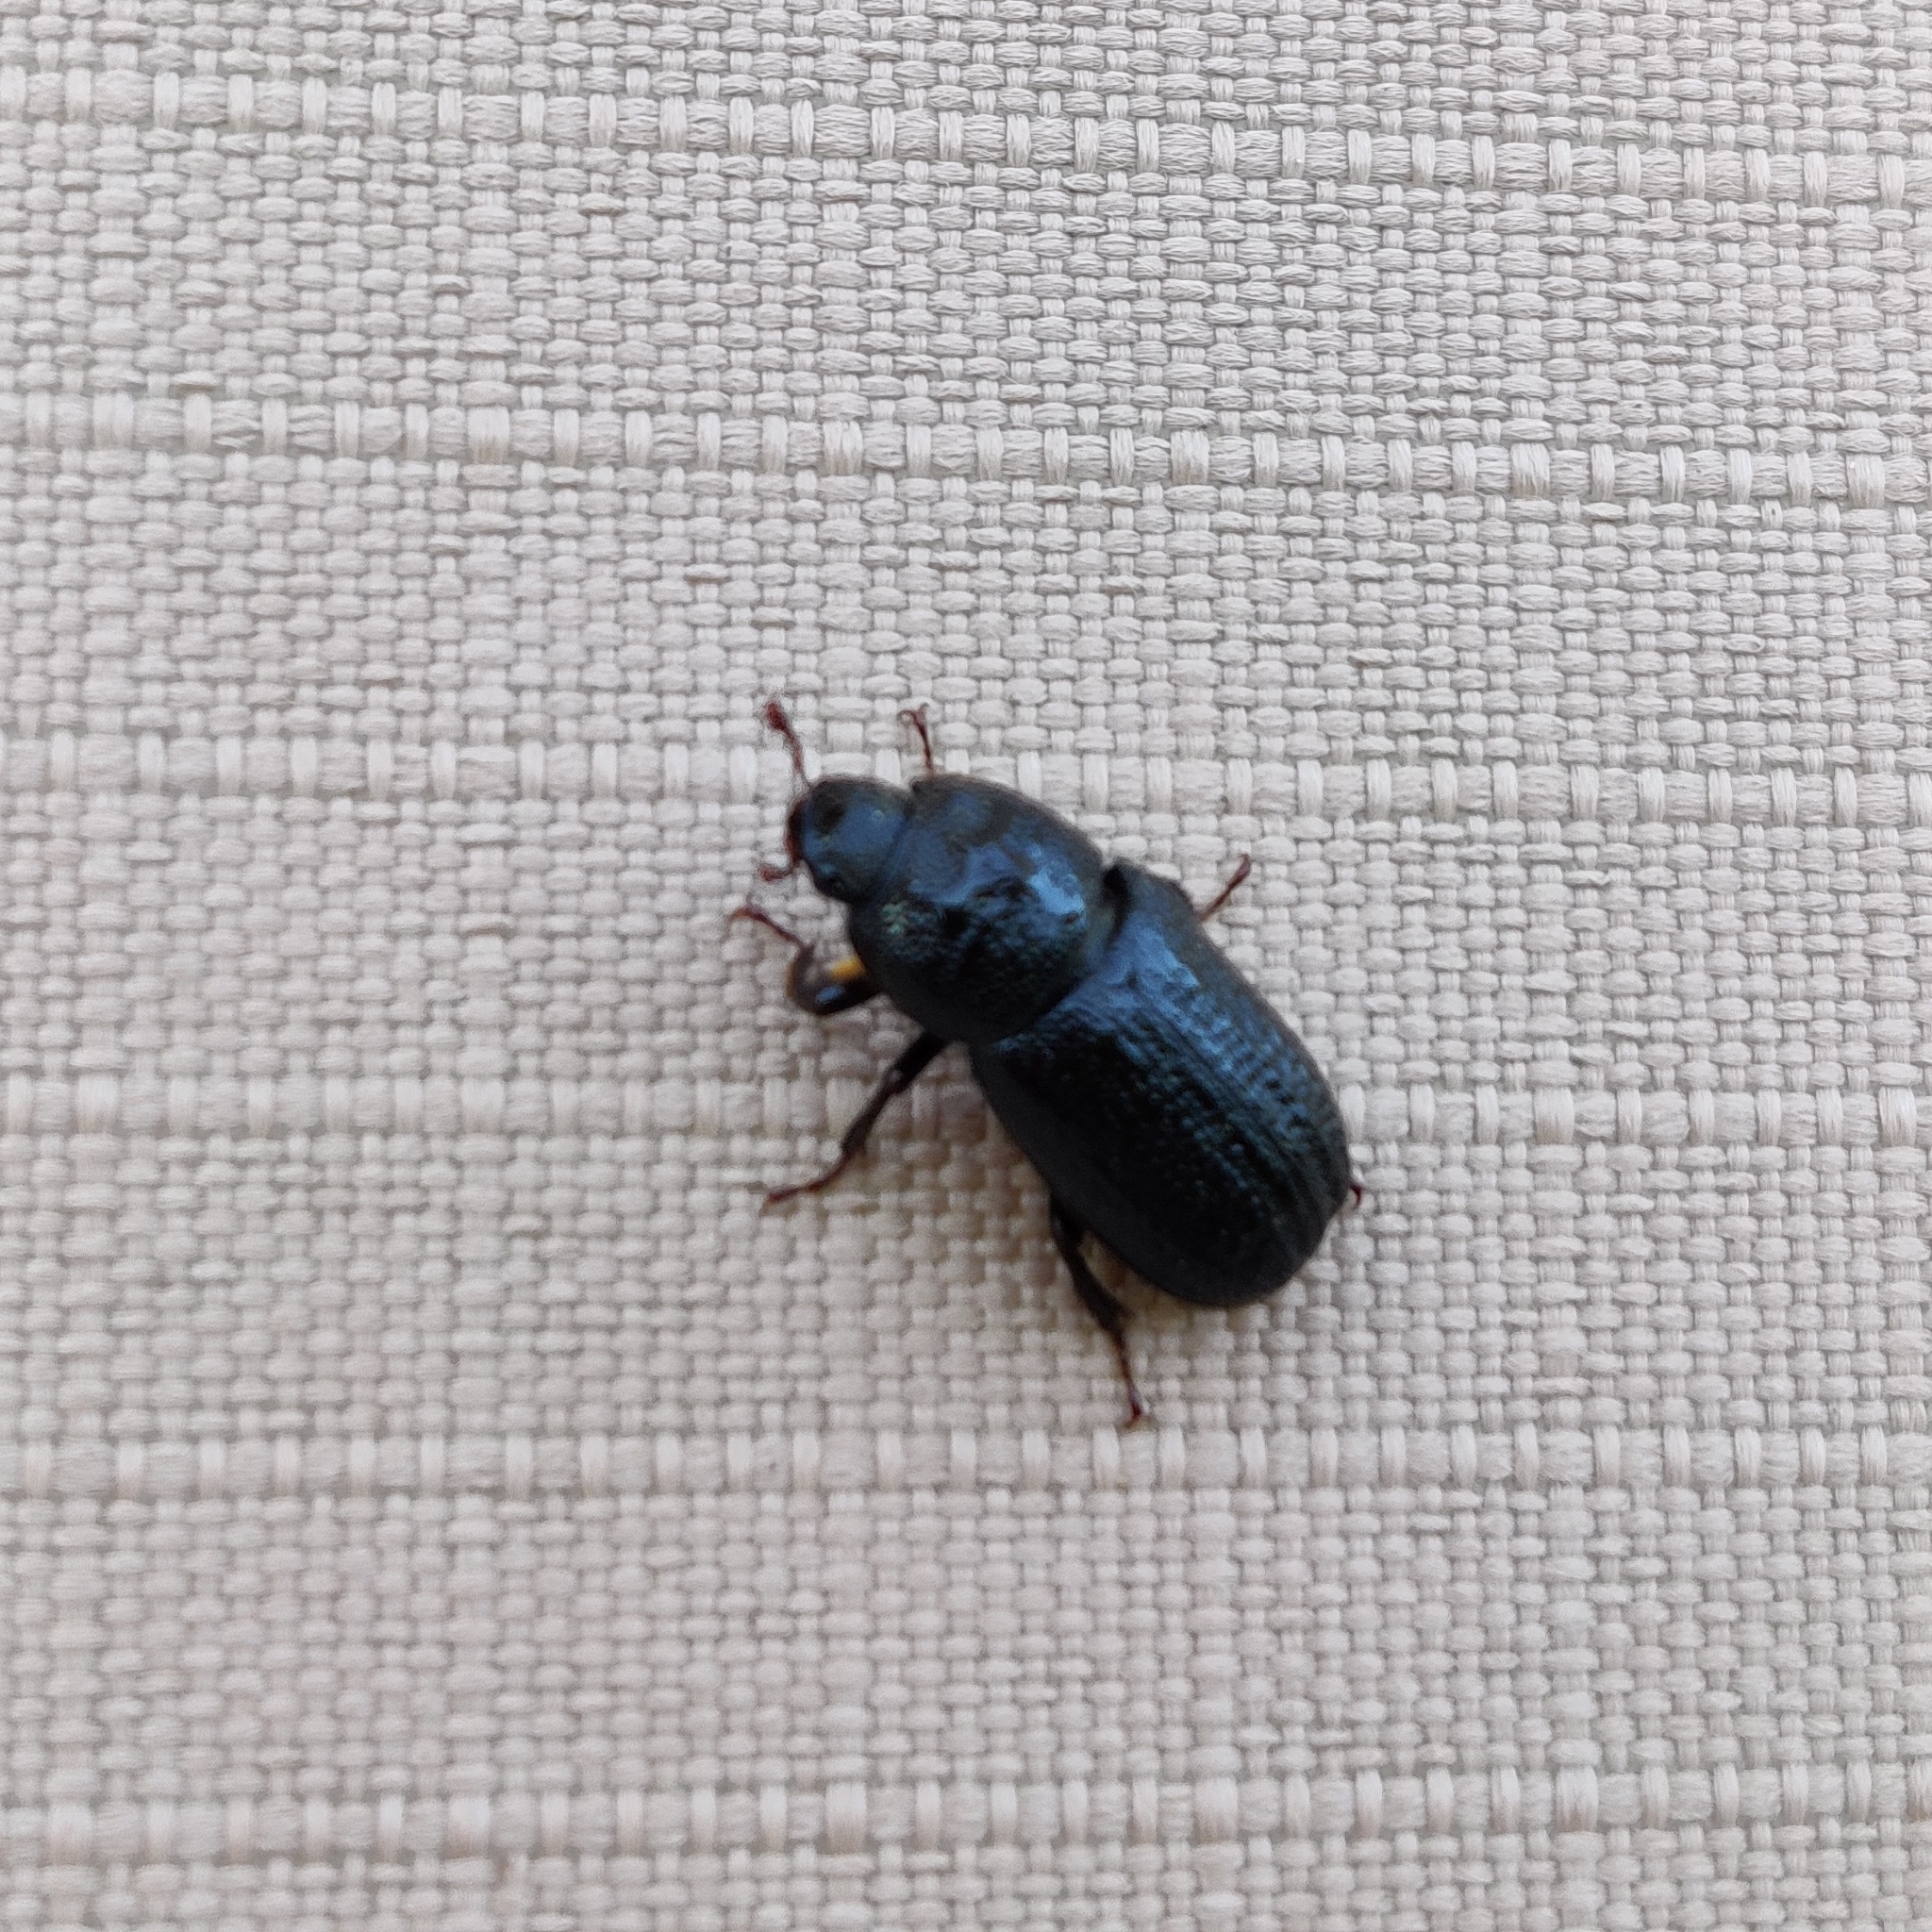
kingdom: Animalia
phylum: Arthropoda
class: Insecta
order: Coleoptera
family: Lucanidae
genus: Sinodendron
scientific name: Sinodendron cylindricum
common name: Rhinoceros beetle
